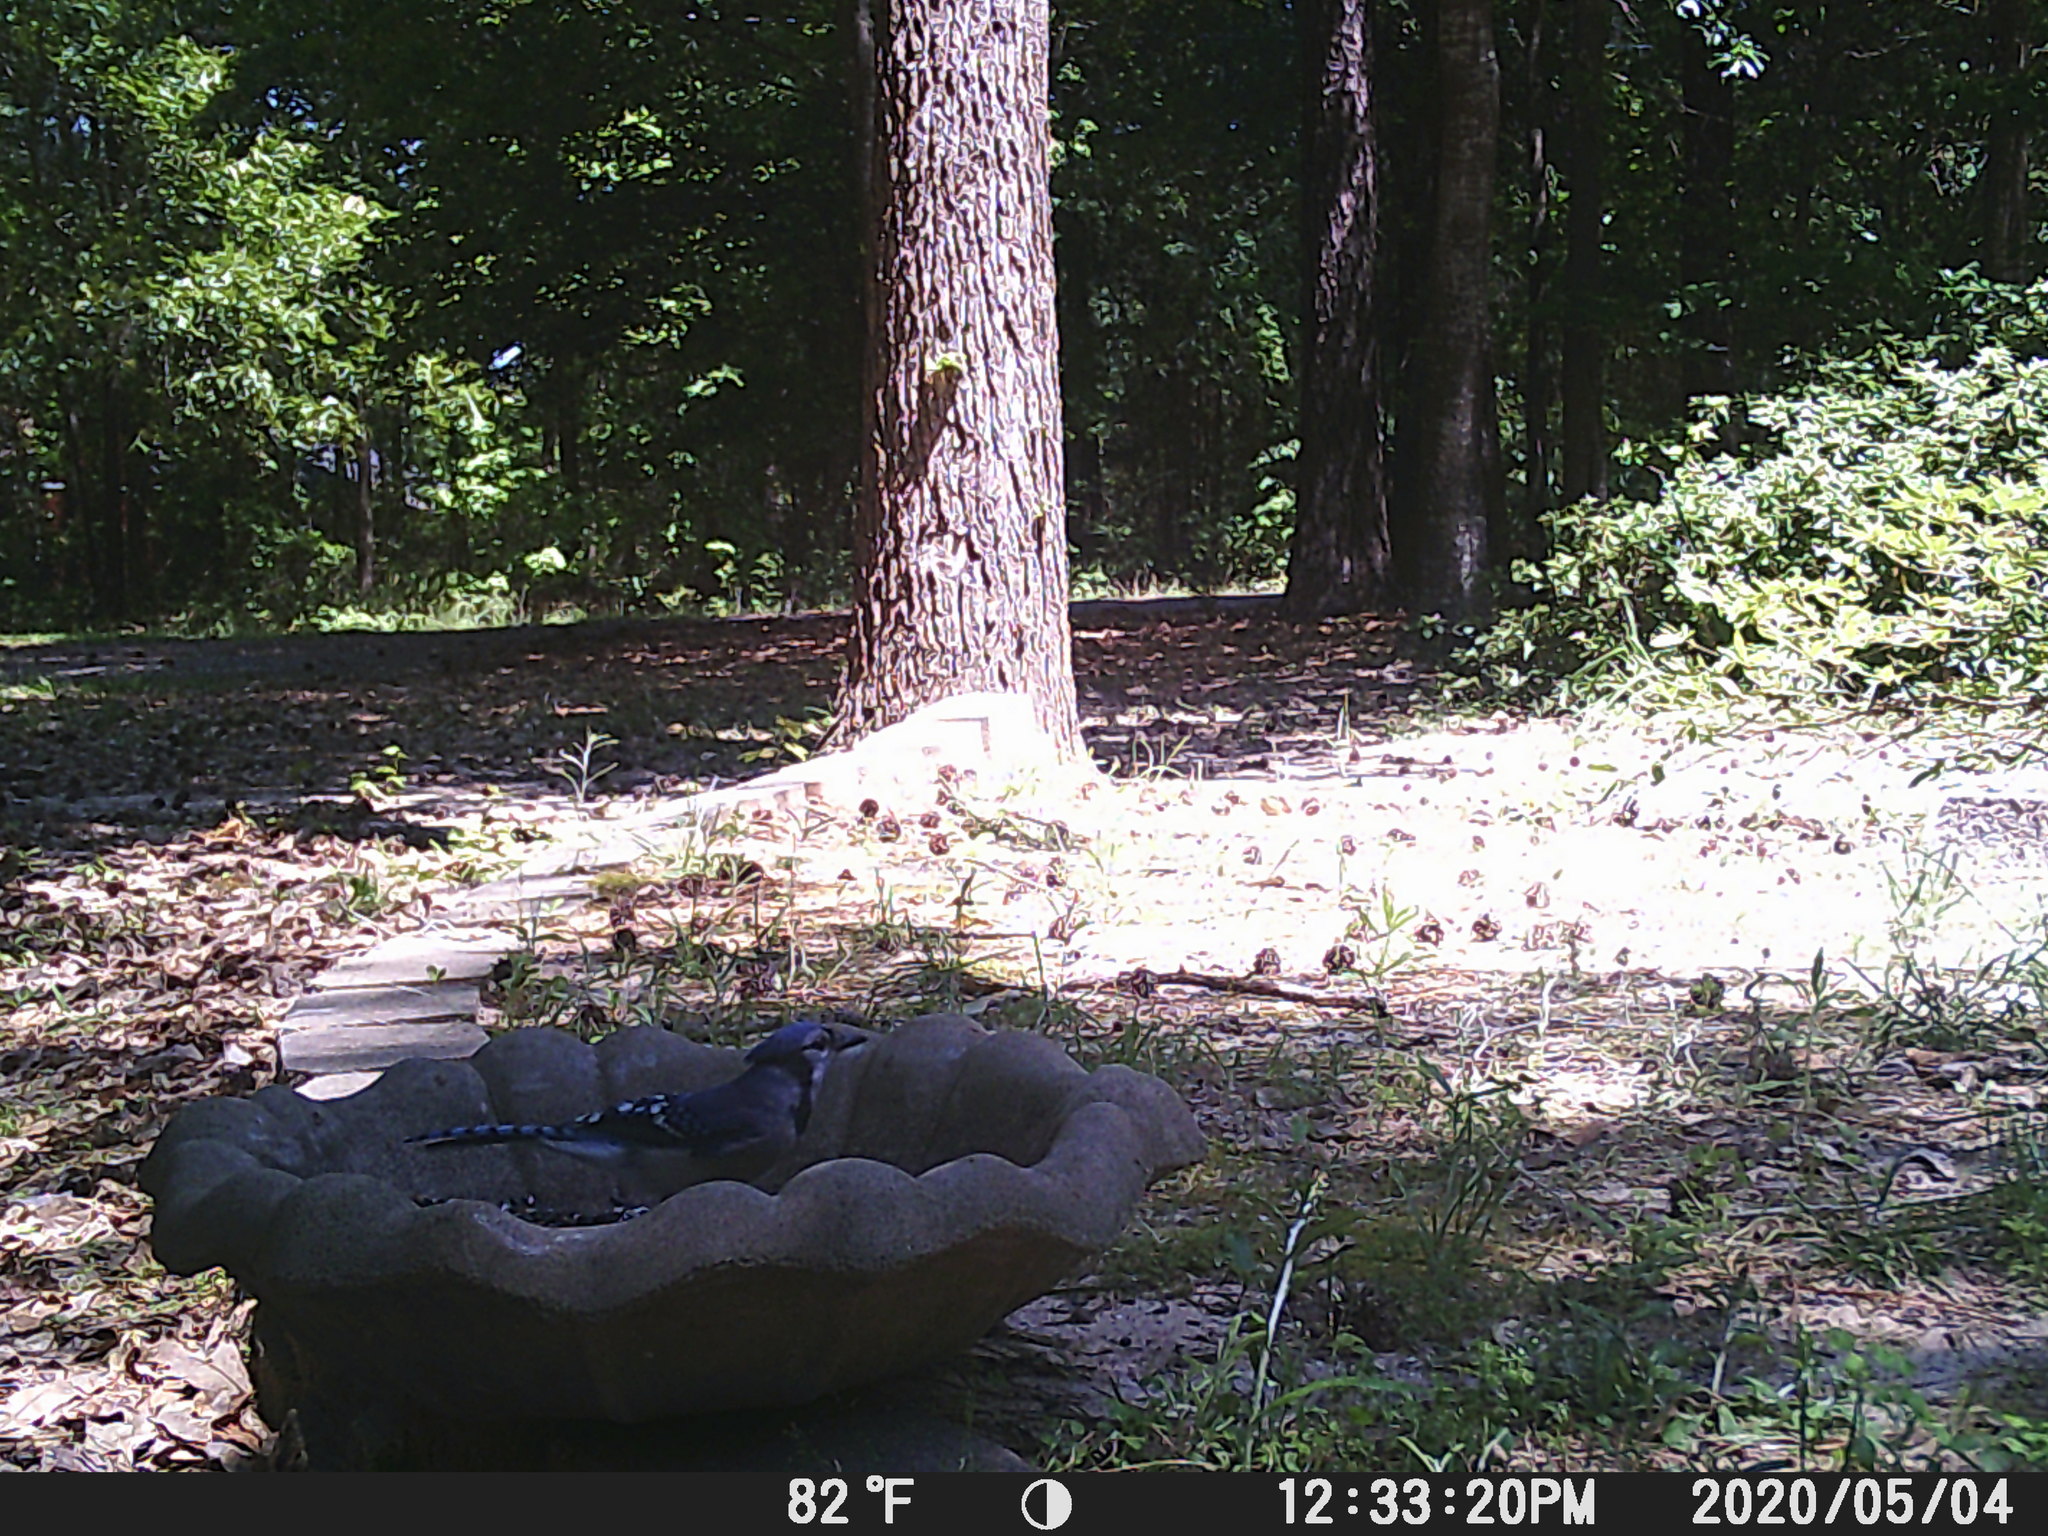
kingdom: Animalia
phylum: Chordata
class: Aves
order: Passeriformes
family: Corvidae
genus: Cyanocitta
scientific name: Cyanocitta cristata
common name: Blue jay
